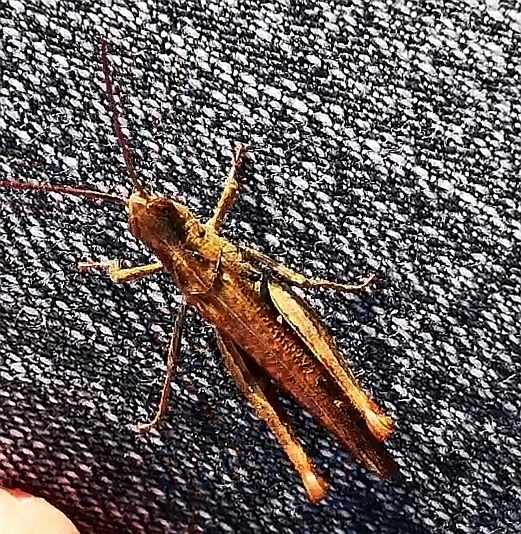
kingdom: Animalia
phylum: Arthropoda
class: Insecta
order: Orthoptera
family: Acrididae
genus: Chorthippus
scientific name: Chorthippus biguttulus
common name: Bow-winged grasshopper
